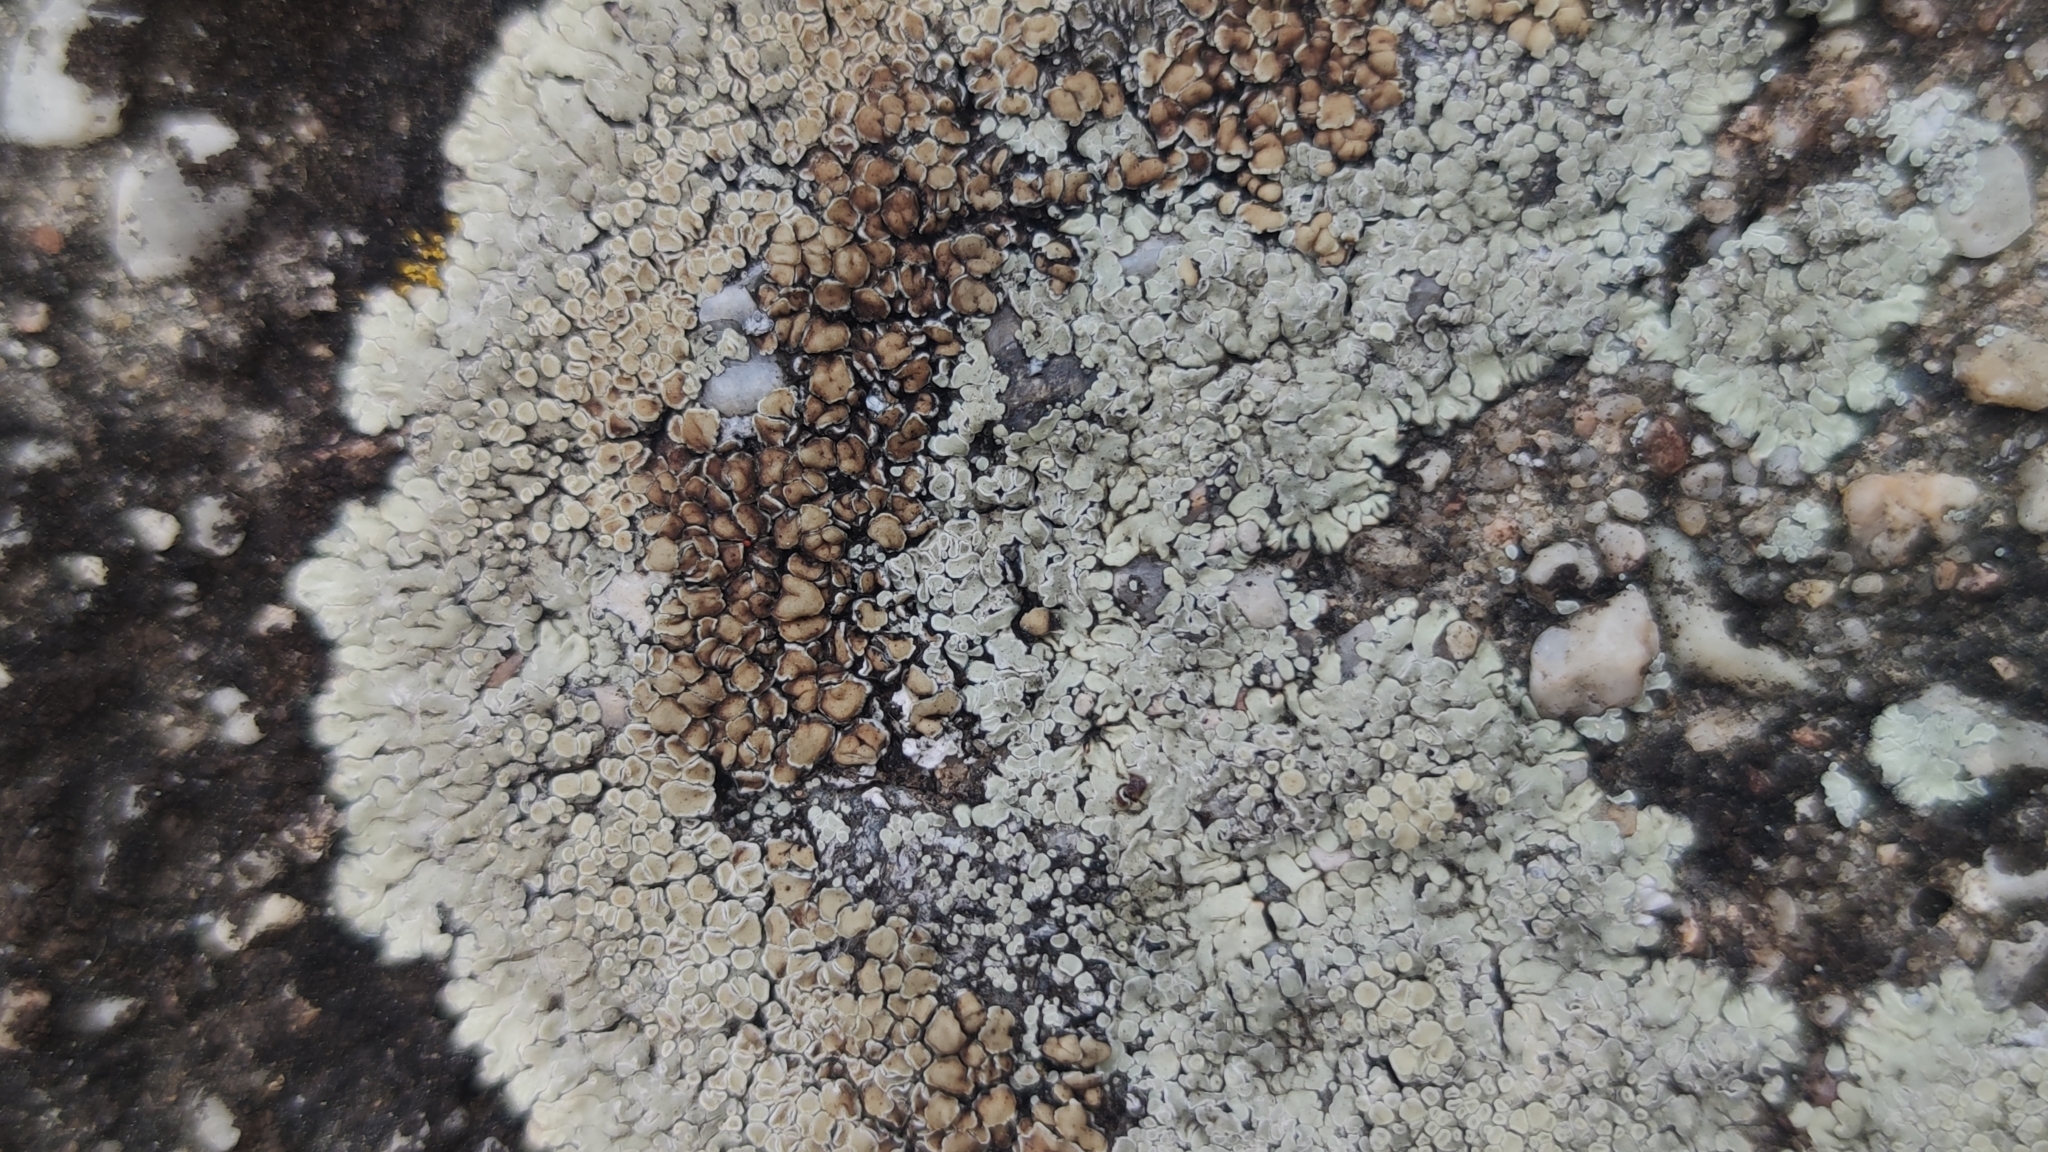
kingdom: Fungi
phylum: Ascomycota
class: Lecanoromycetes
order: Lecanorales
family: Lecanoraceae
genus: Protoparmeliopsis
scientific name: Protoparmeliopsis muralis
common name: Stonewall rim lichen
